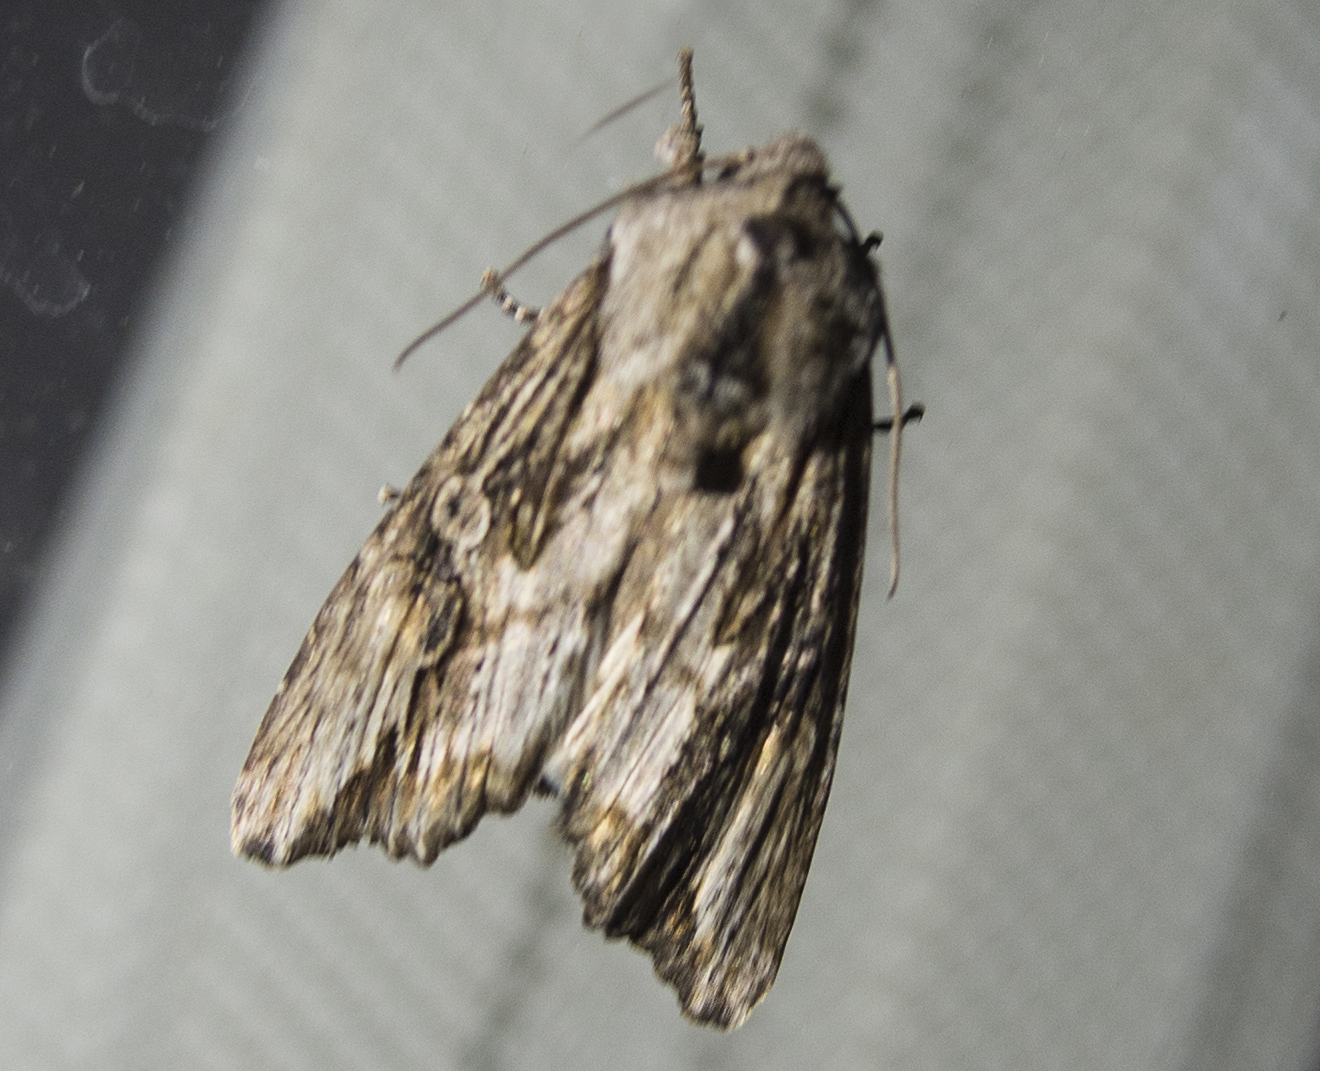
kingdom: Animalia
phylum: Arthropoda
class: Insecta
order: Lepidoptera
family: Noctuidae
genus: Egira
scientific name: Egira
